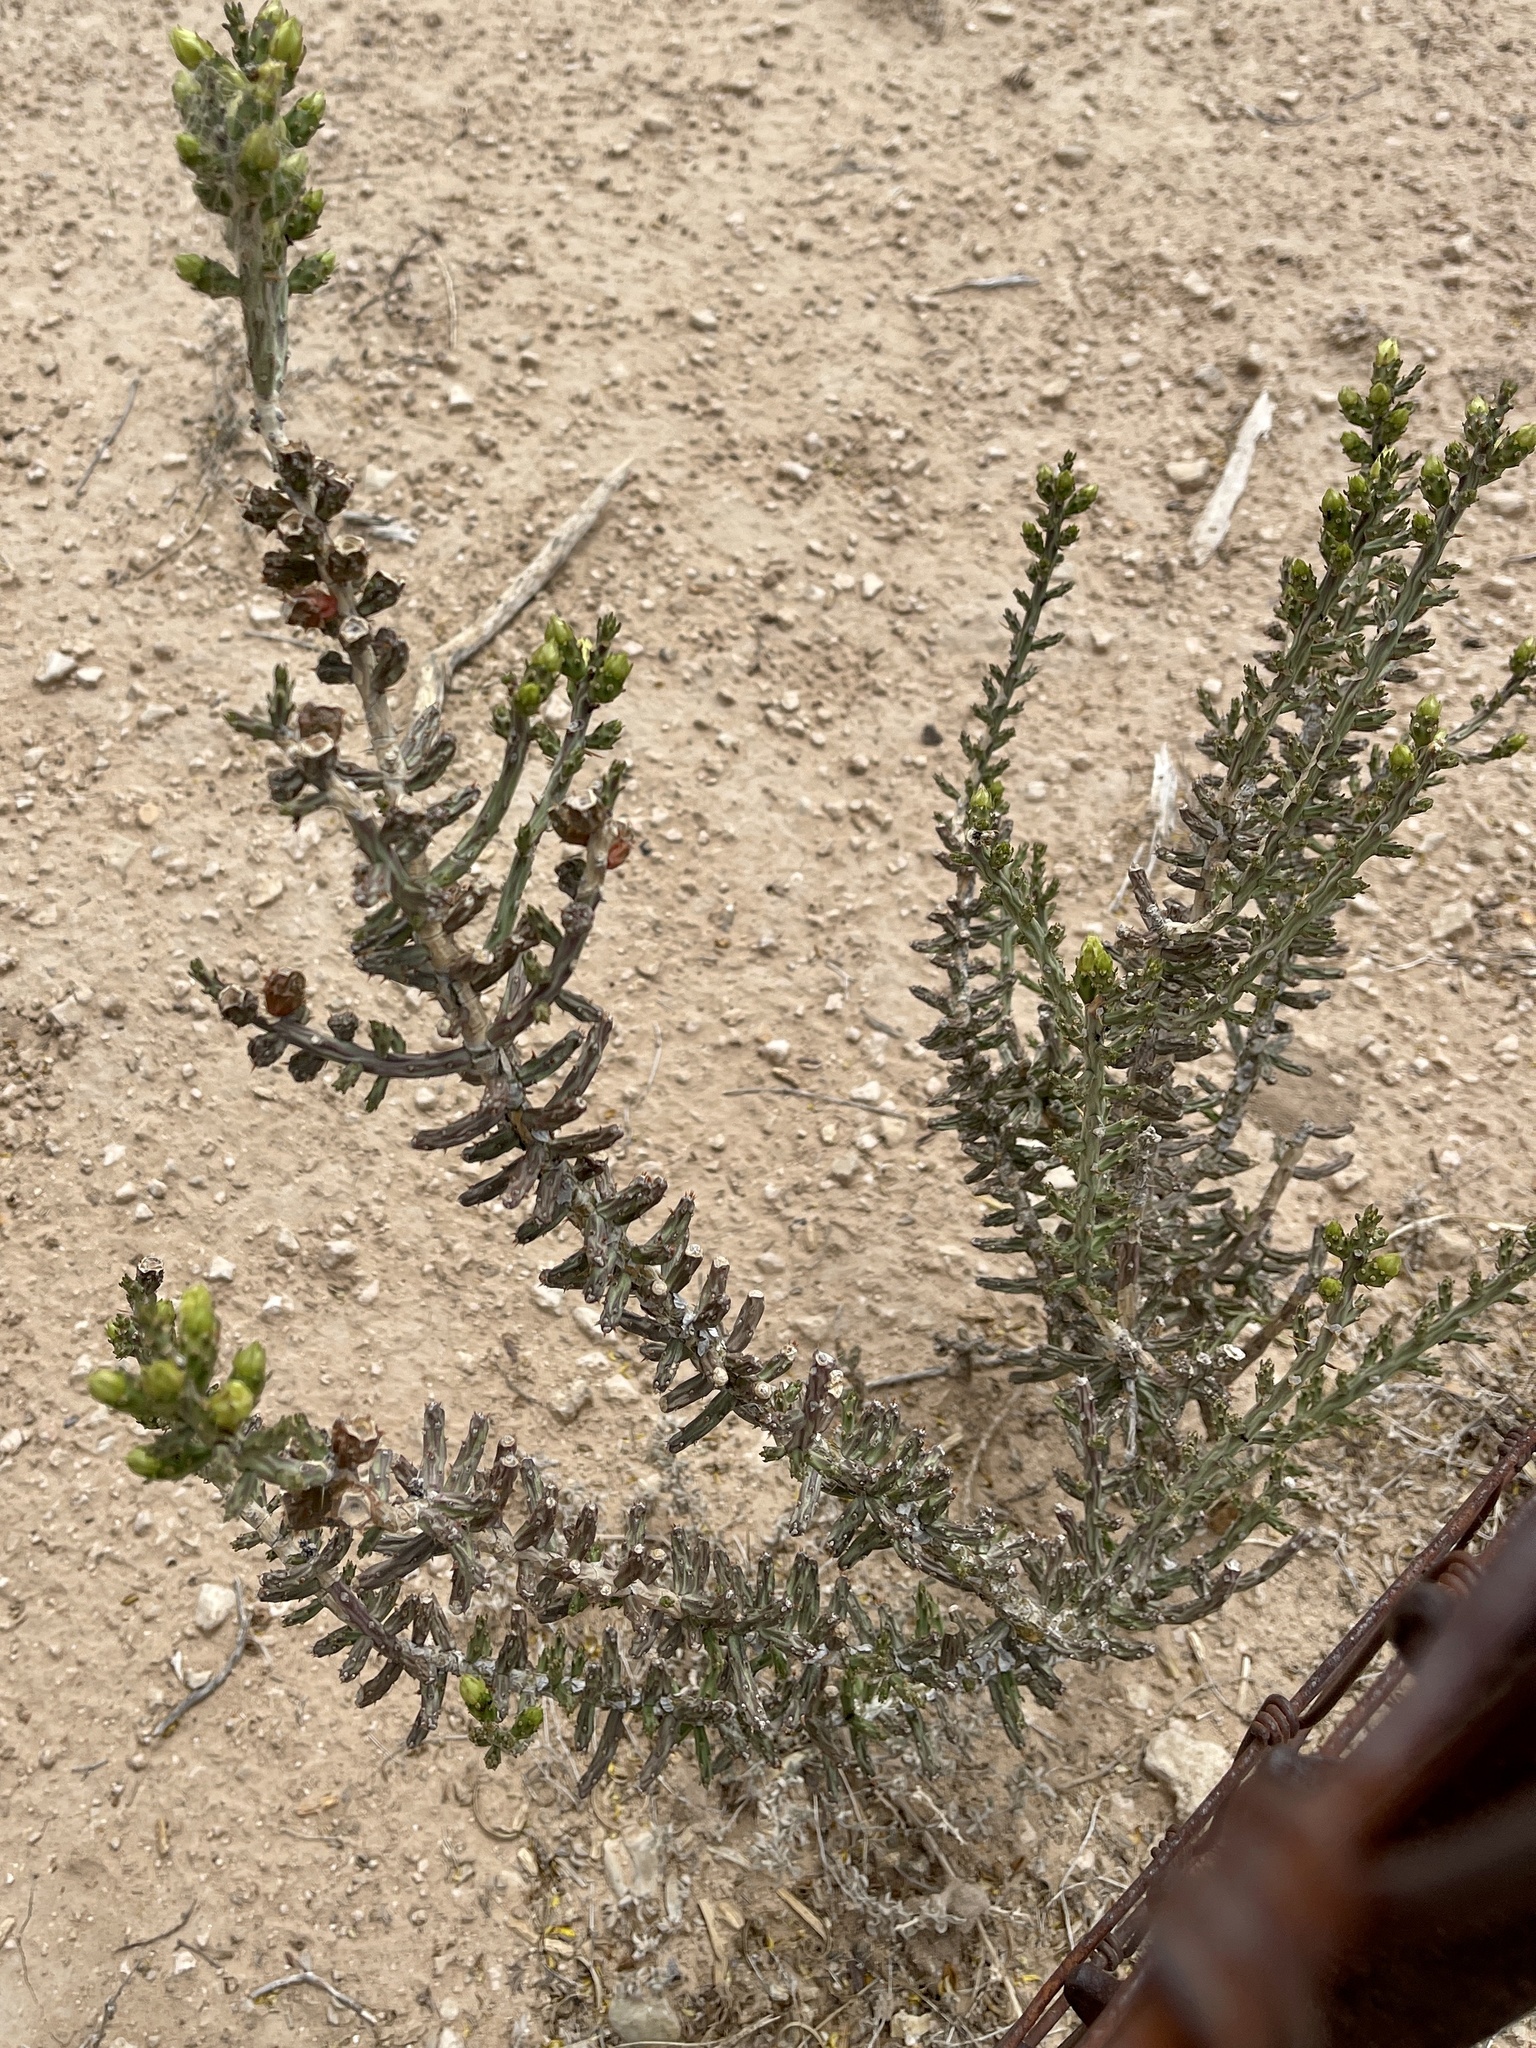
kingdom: Plantae
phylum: Tracheophyta
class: Magnoliopsida
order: Caryophyllales
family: Cactaceae
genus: Cylindropuntia
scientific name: Cylindropuntia leptocaulis
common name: Christmas cactus
